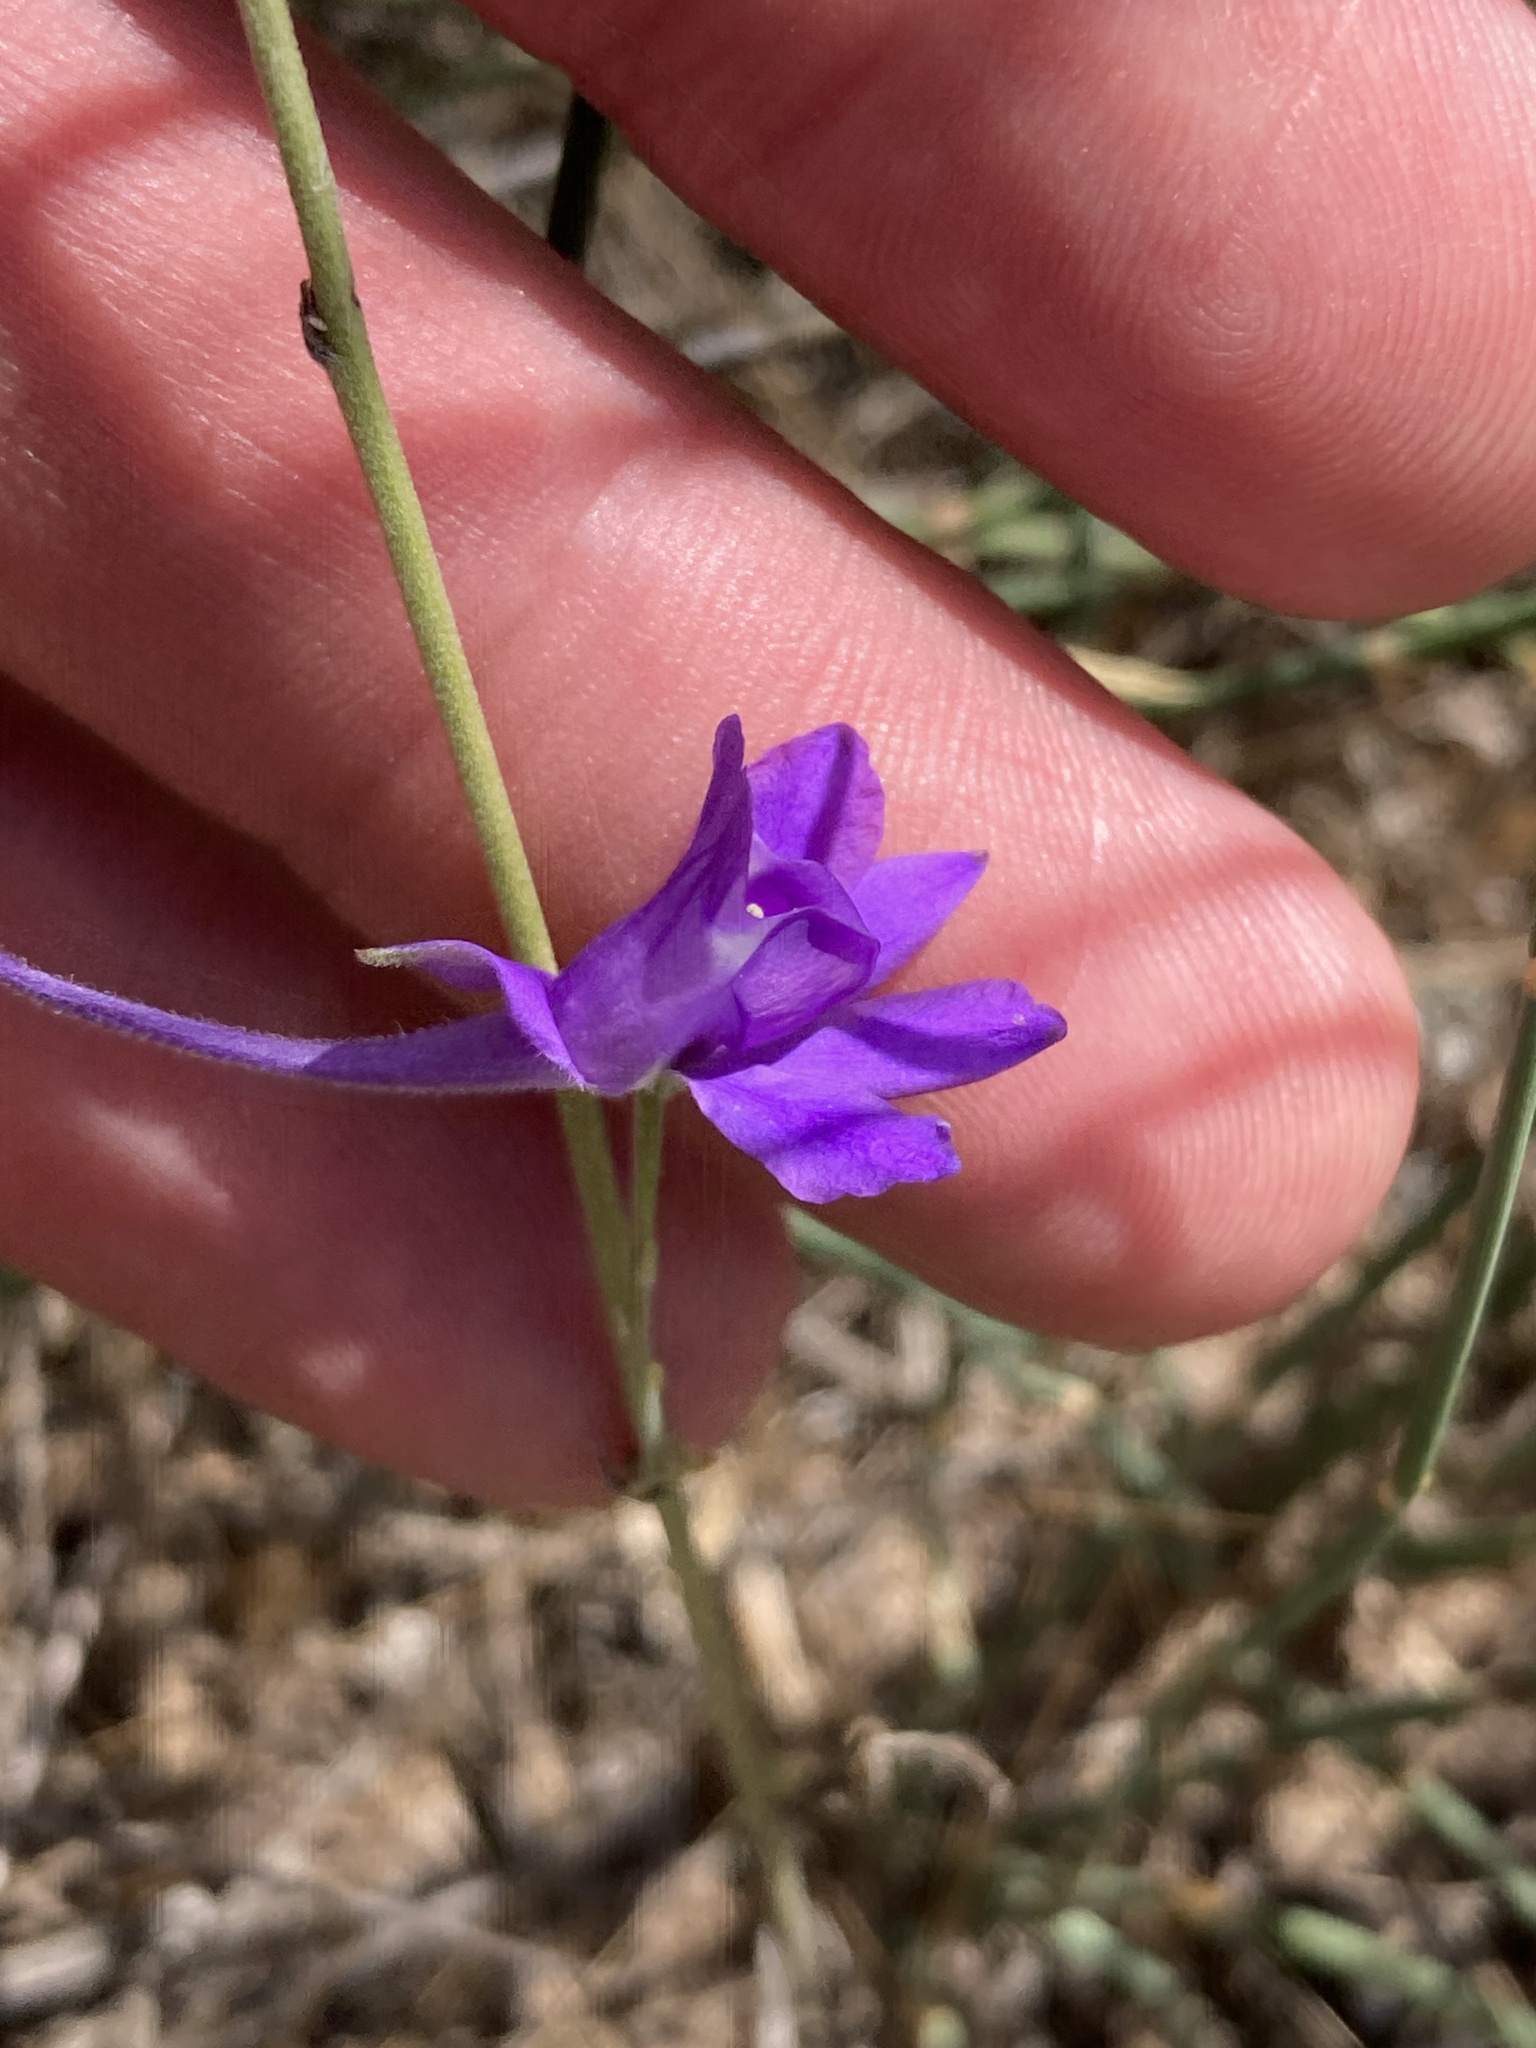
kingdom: Plantae
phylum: Tracheophyta
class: Magnoliopsida
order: Ranunculales
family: Ranunculaceae
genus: Delphinium
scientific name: Delphinium consolida
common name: Branching larkspur
